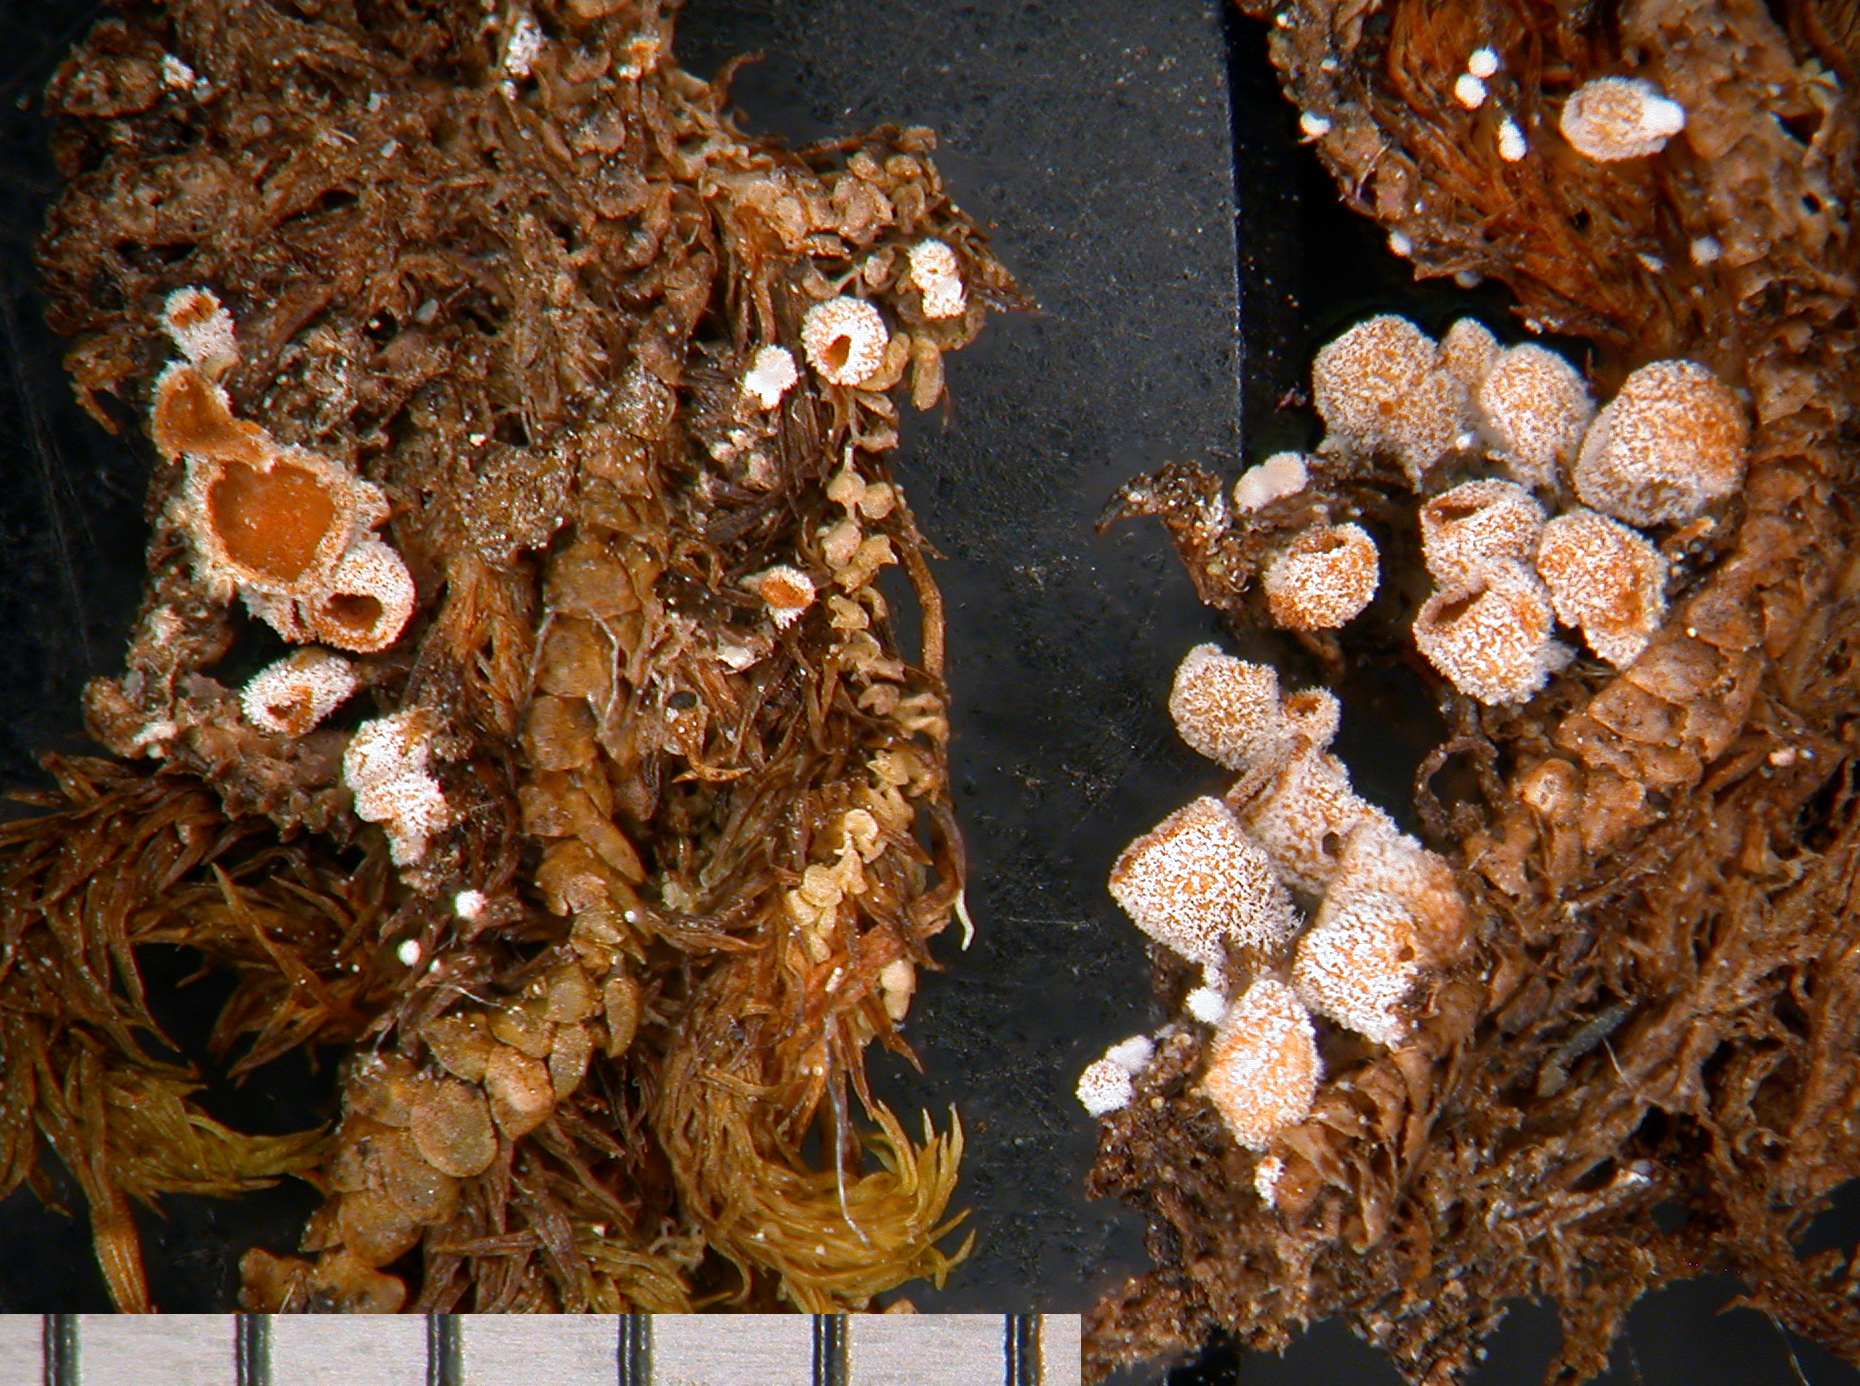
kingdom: Fungi
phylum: Basidiomycota
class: Agaricomycetes
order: Agaricales
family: Chromocyphellaceae
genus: Chromocyphella
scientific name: Chromocyphella muscicola
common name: Moss ear
